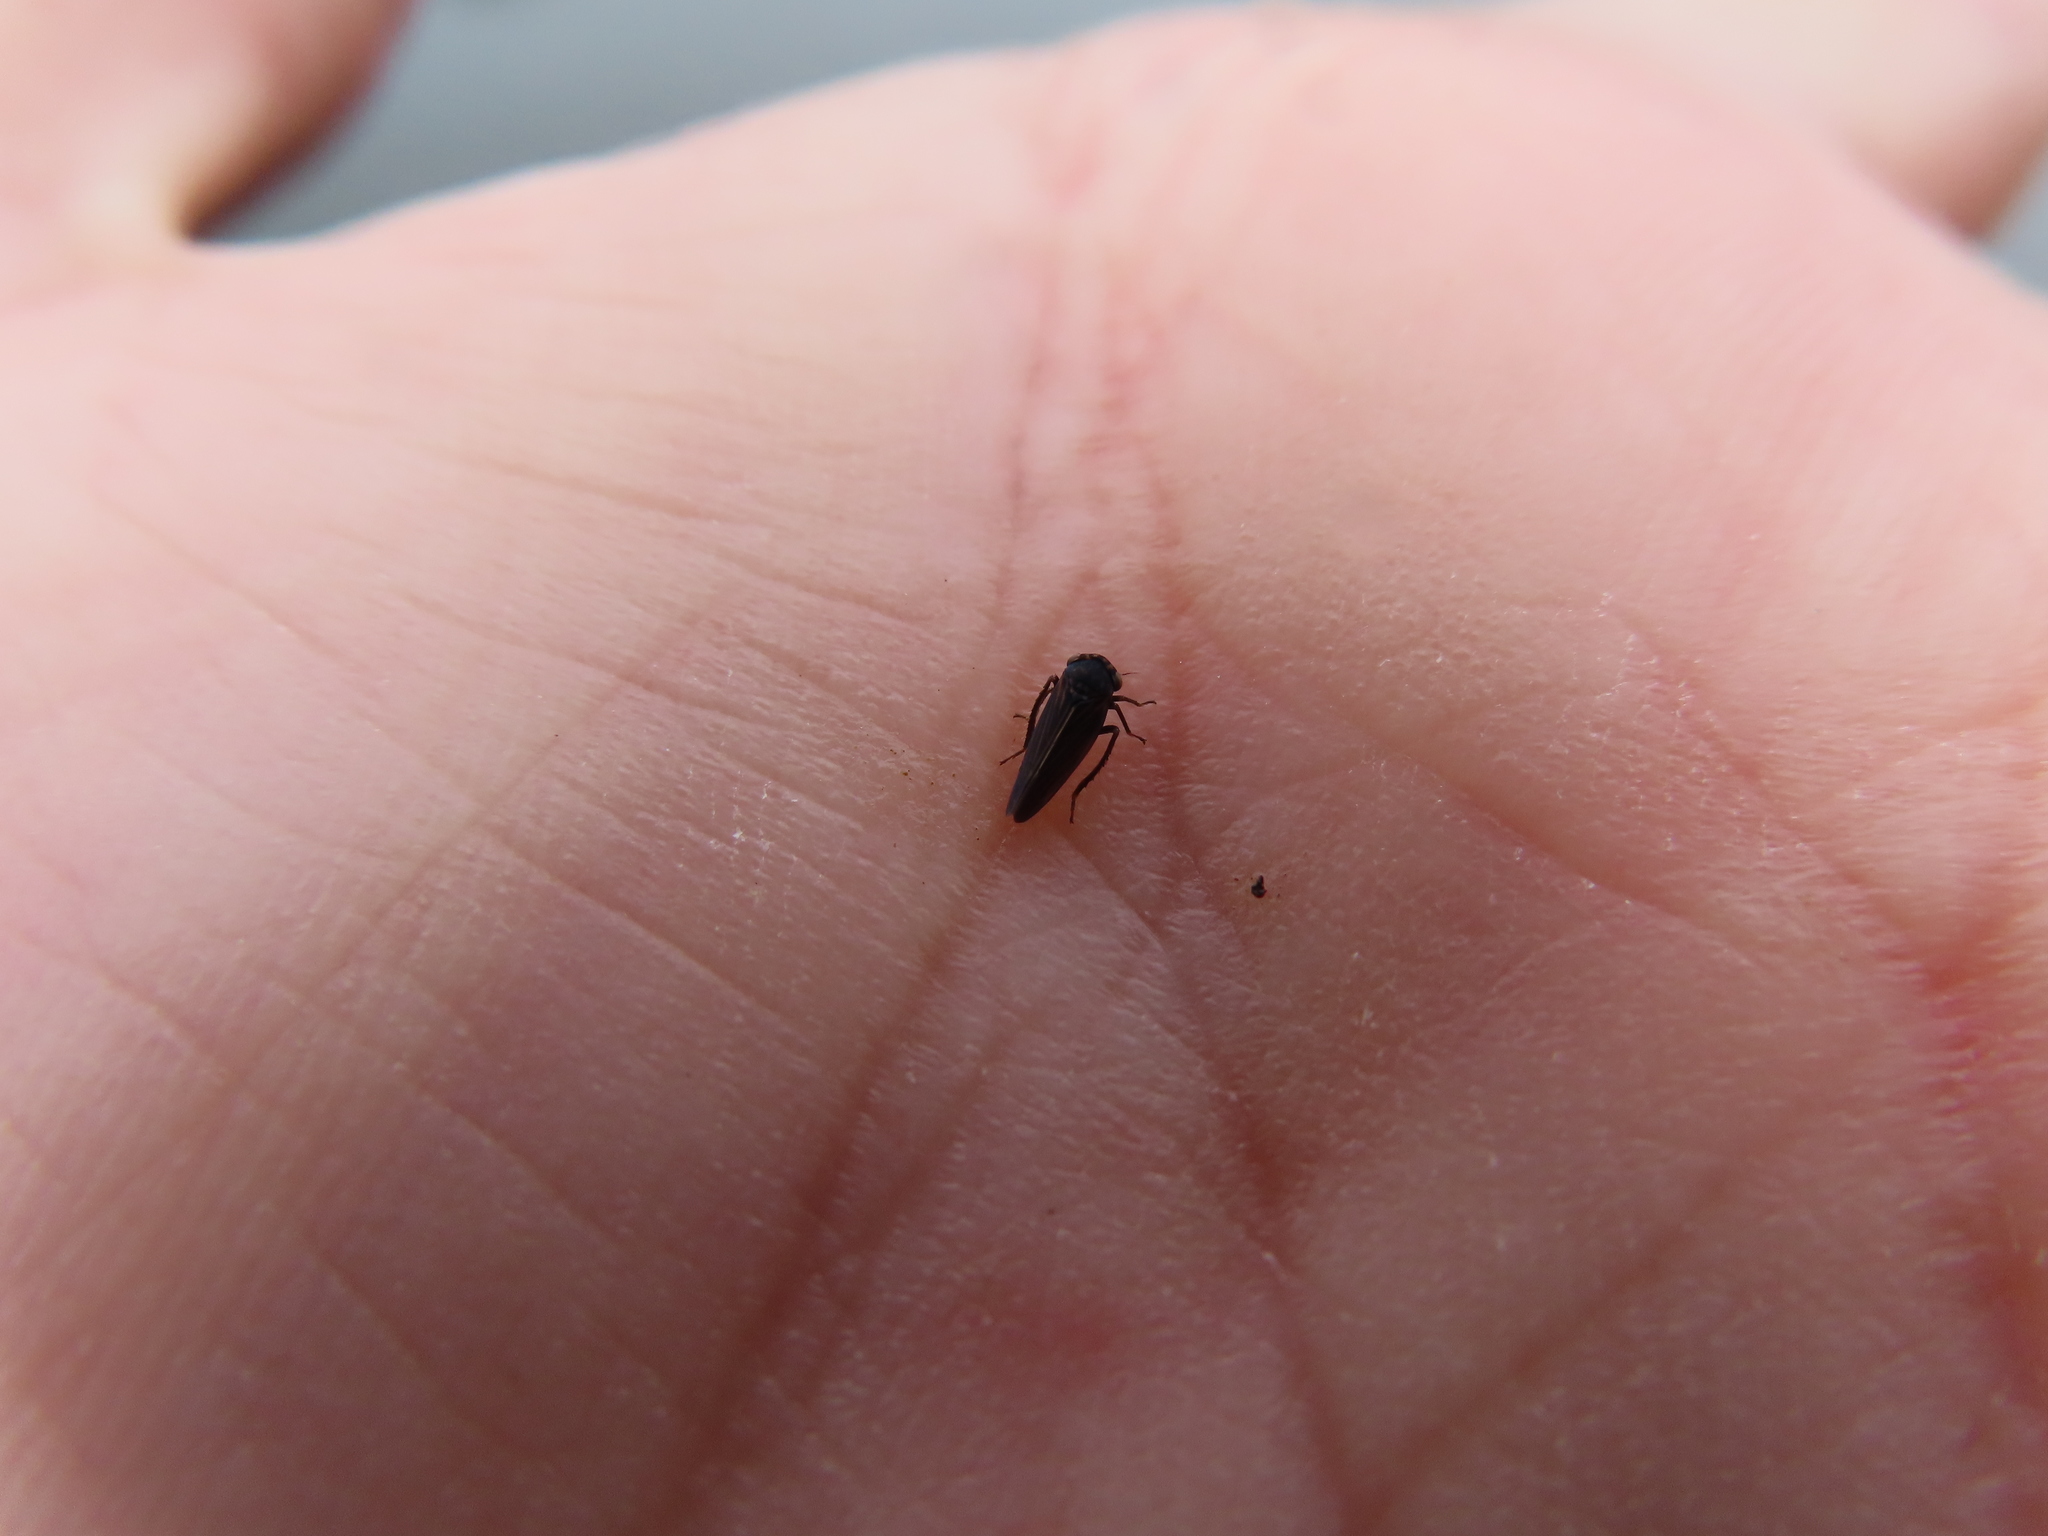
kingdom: Animalia
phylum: Arthropoda
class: Insecta
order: Hemiptera
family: Cicadellidae
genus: Agallia
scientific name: Agallia constricta
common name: The constricted leafhopper
